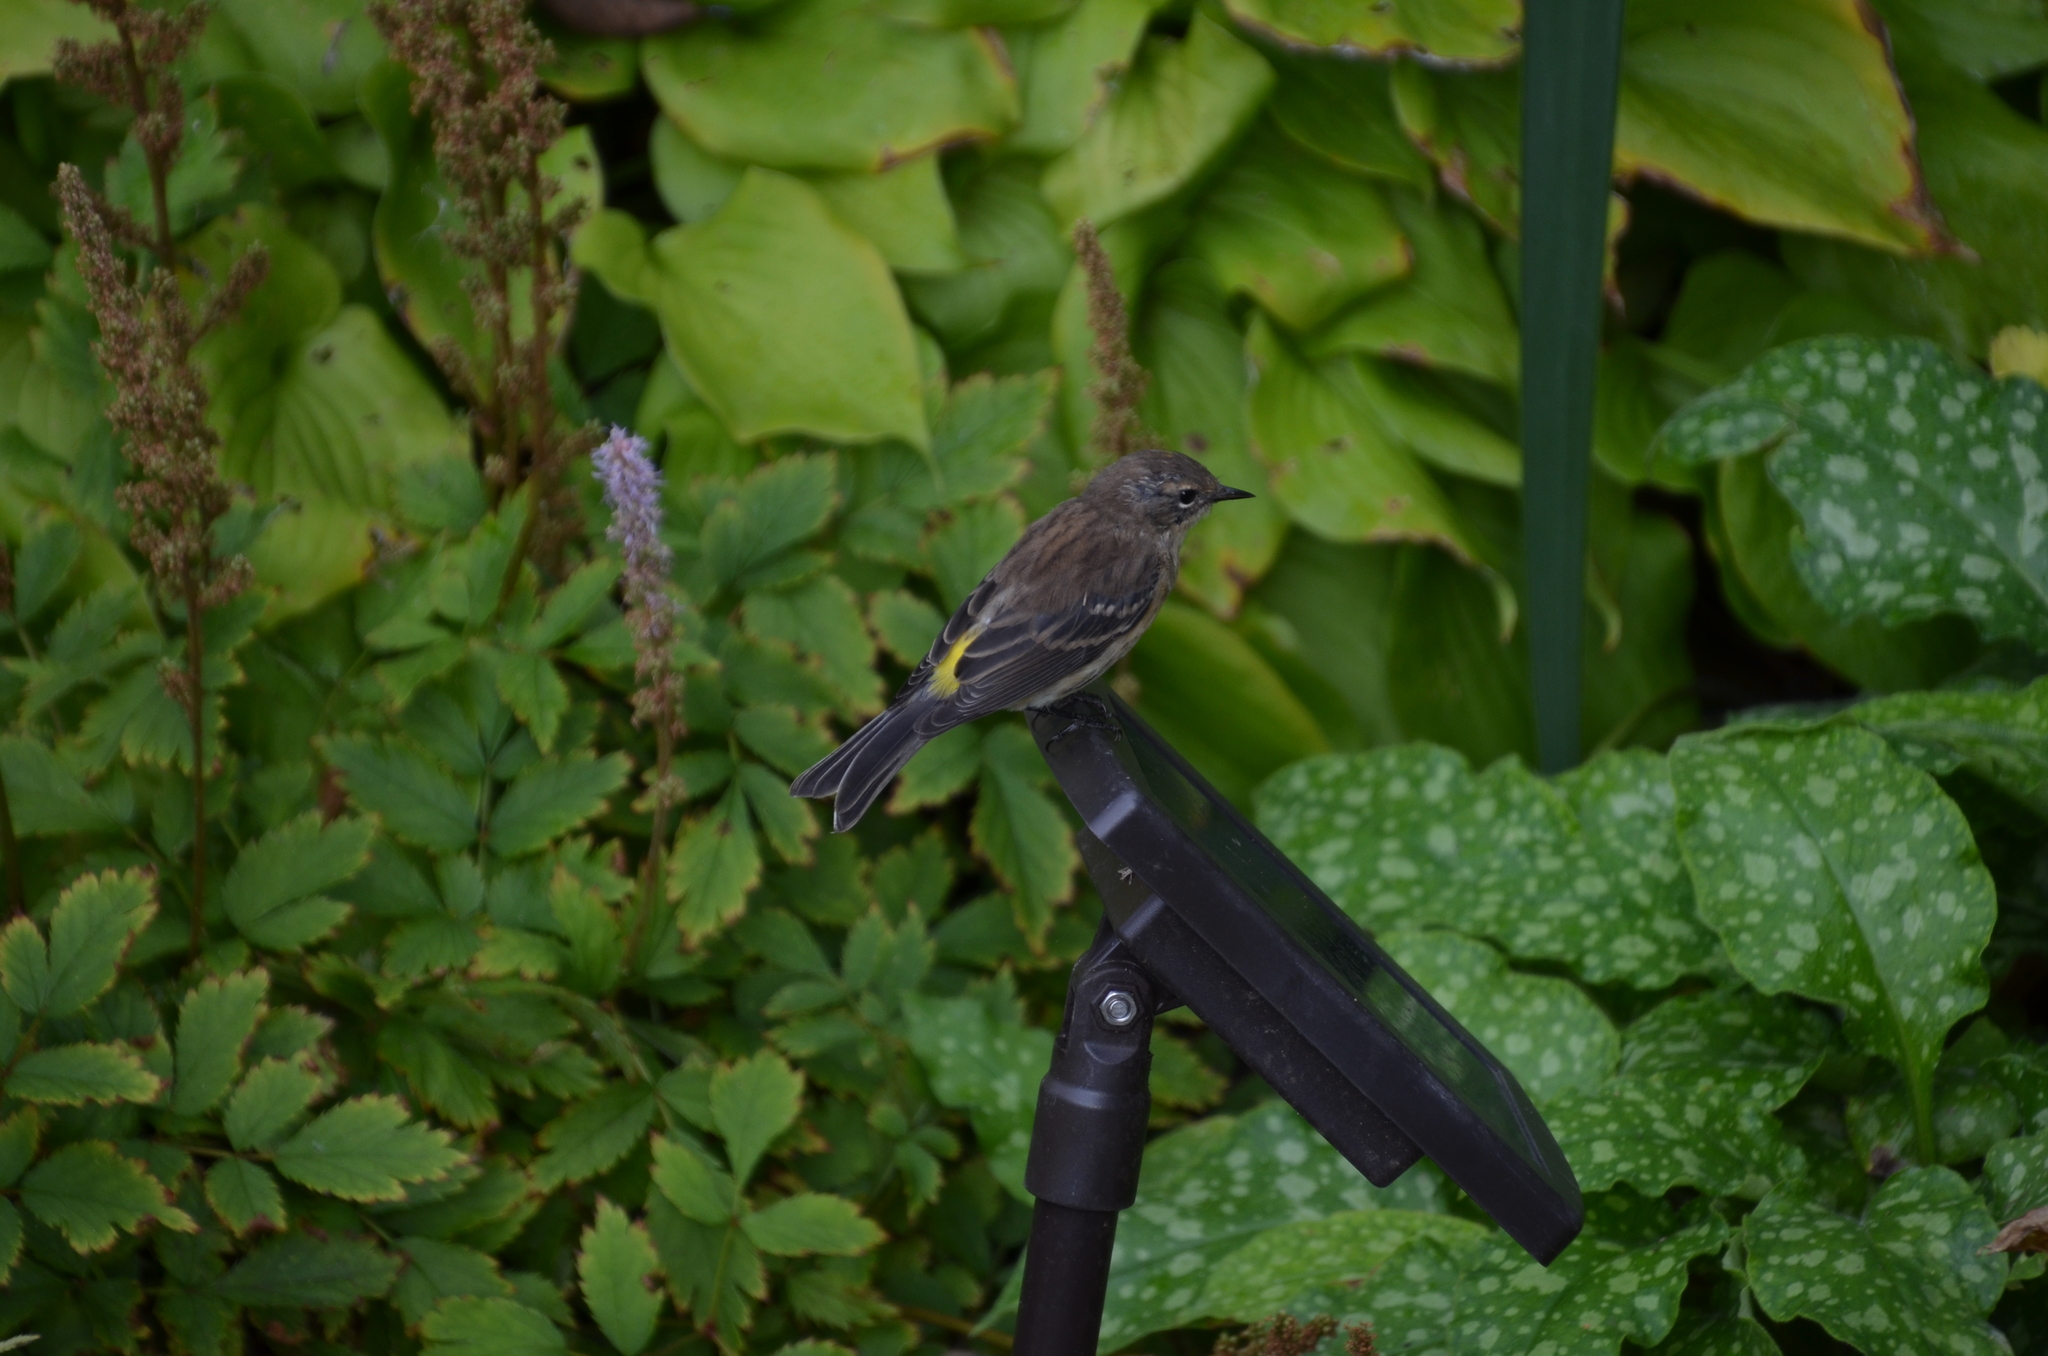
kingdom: Animalia
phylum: Chordata
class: Aves
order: Passeriformes
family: Parulidae
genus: Setophaga
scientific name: Setophaga coronata
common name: Myrtle warbler
